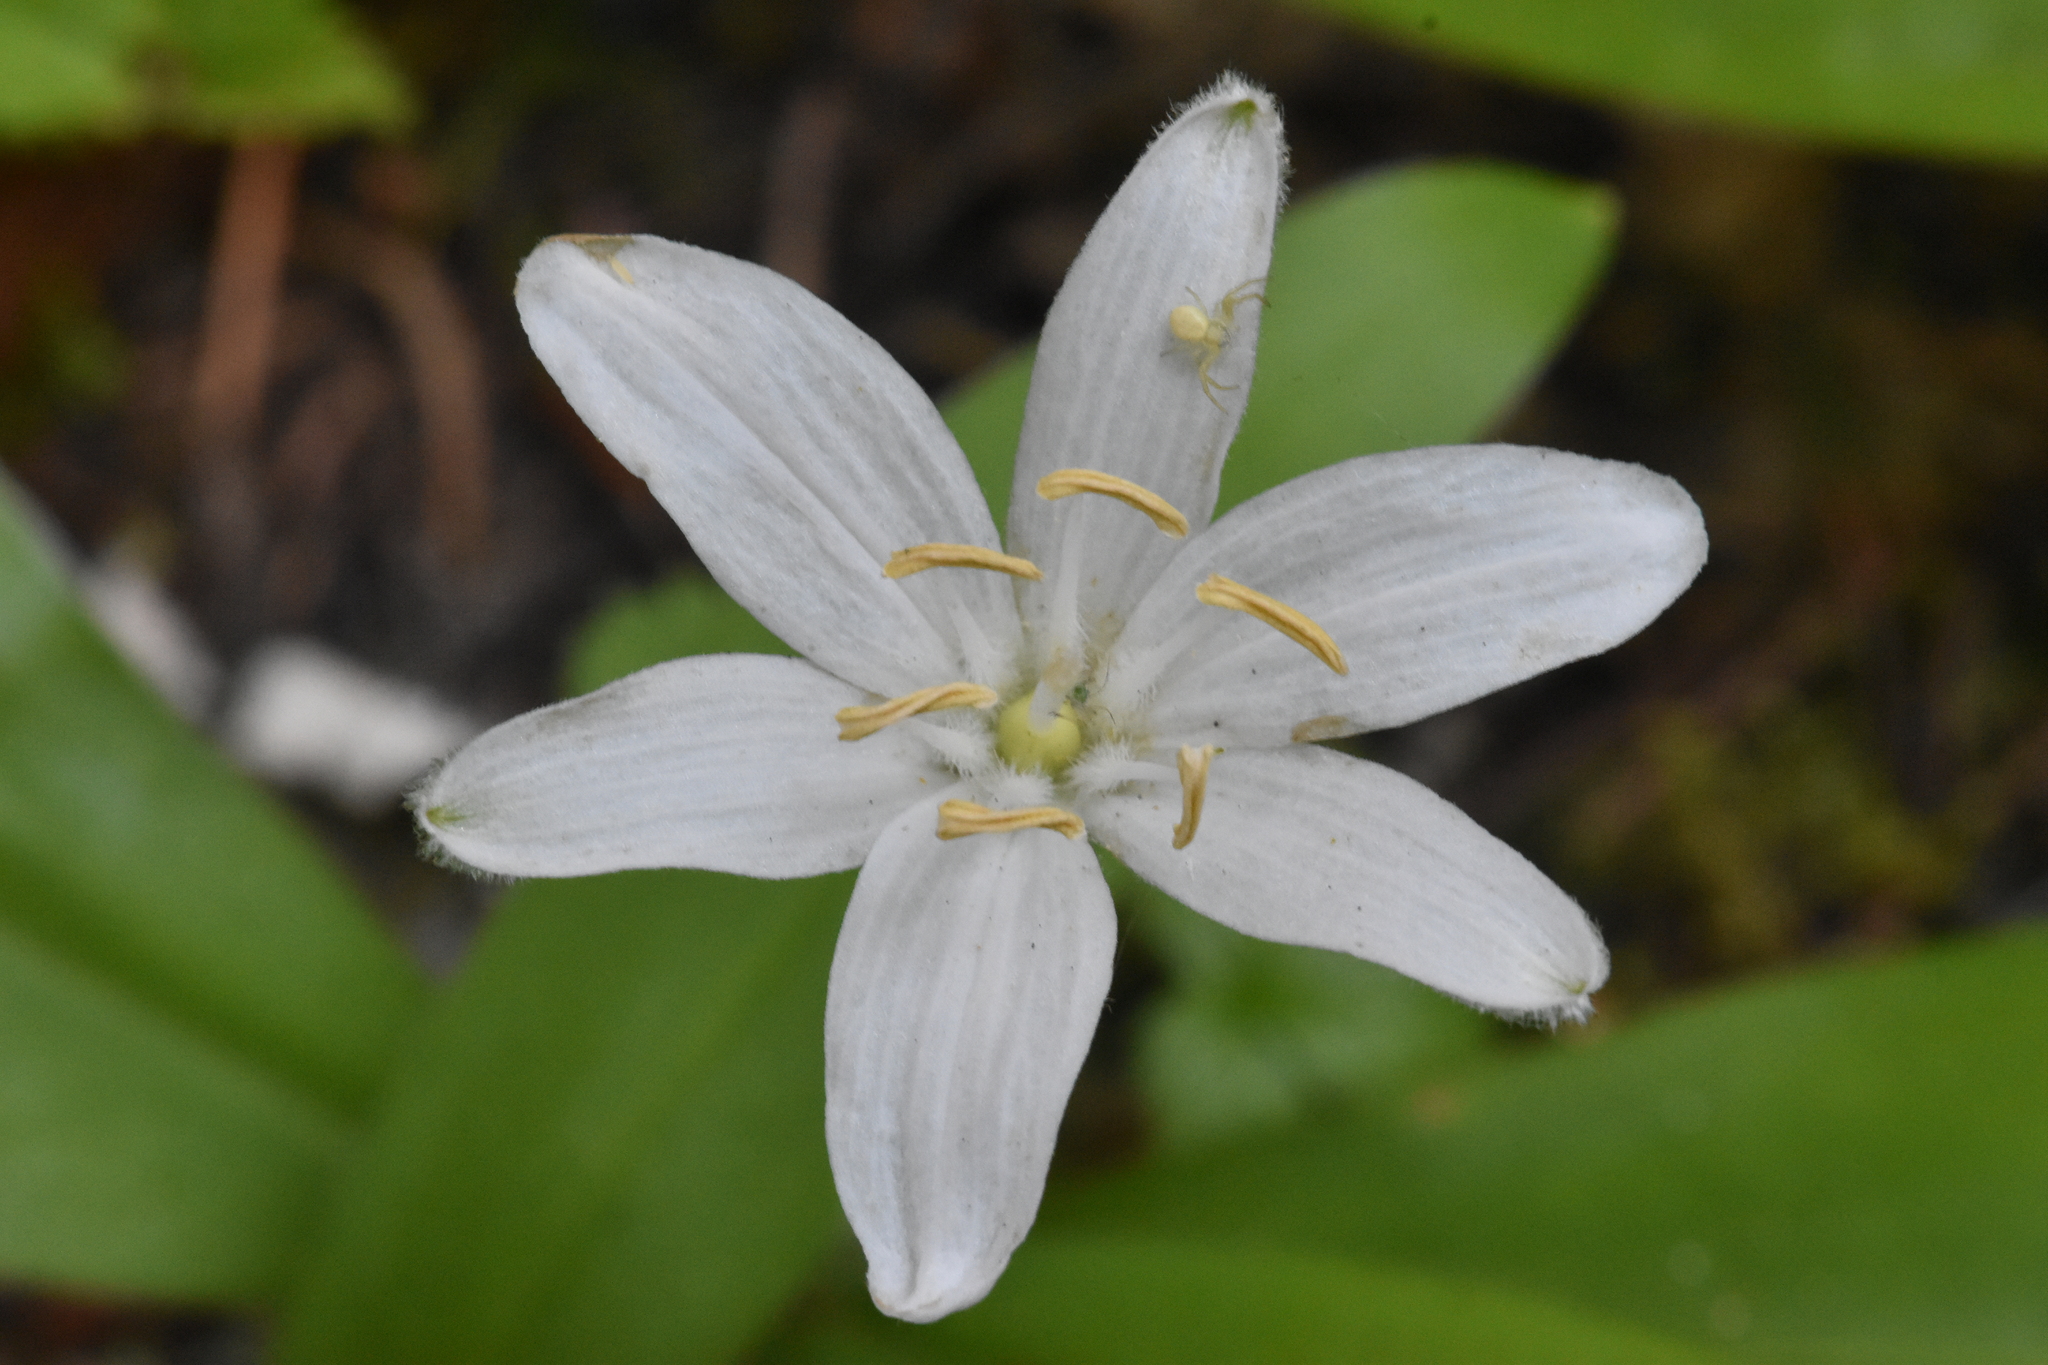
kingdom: Plantae
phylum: Tracheophyta
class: Liliopsida
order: Liliales
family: Liliaceae
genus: Clintonia
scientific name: Clintonia uniflora
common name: Queen's cup
